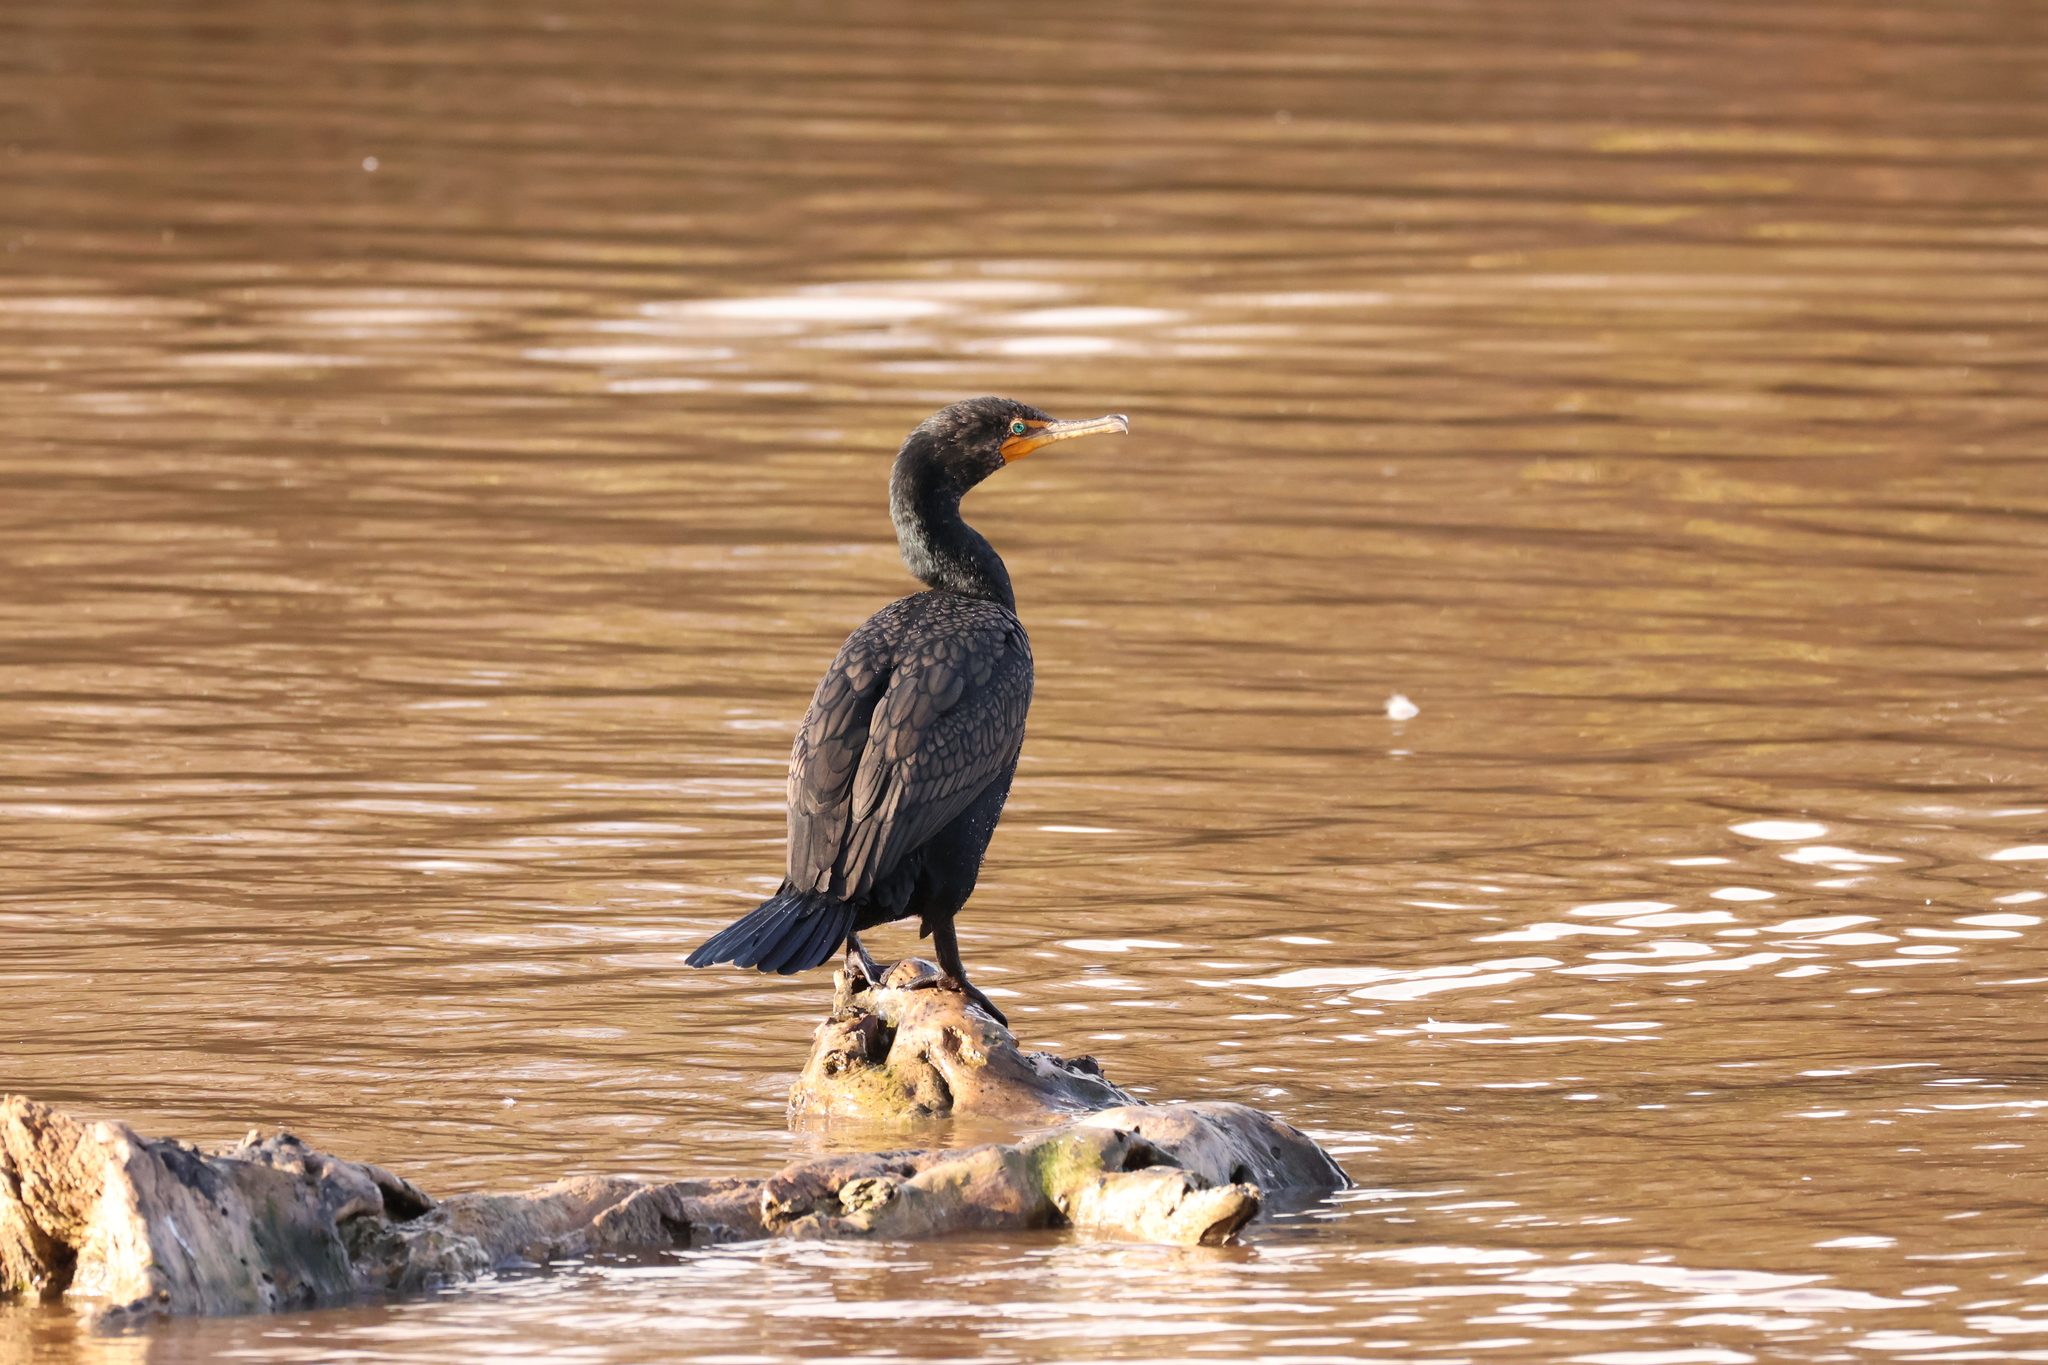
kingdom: Animalia
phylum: Chordata
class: Aves
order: Suliformes
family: Phalacrocoracidae
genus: Phalacrocorax
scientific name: Phalacrocorax auritus
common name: Double-crested cormorant
